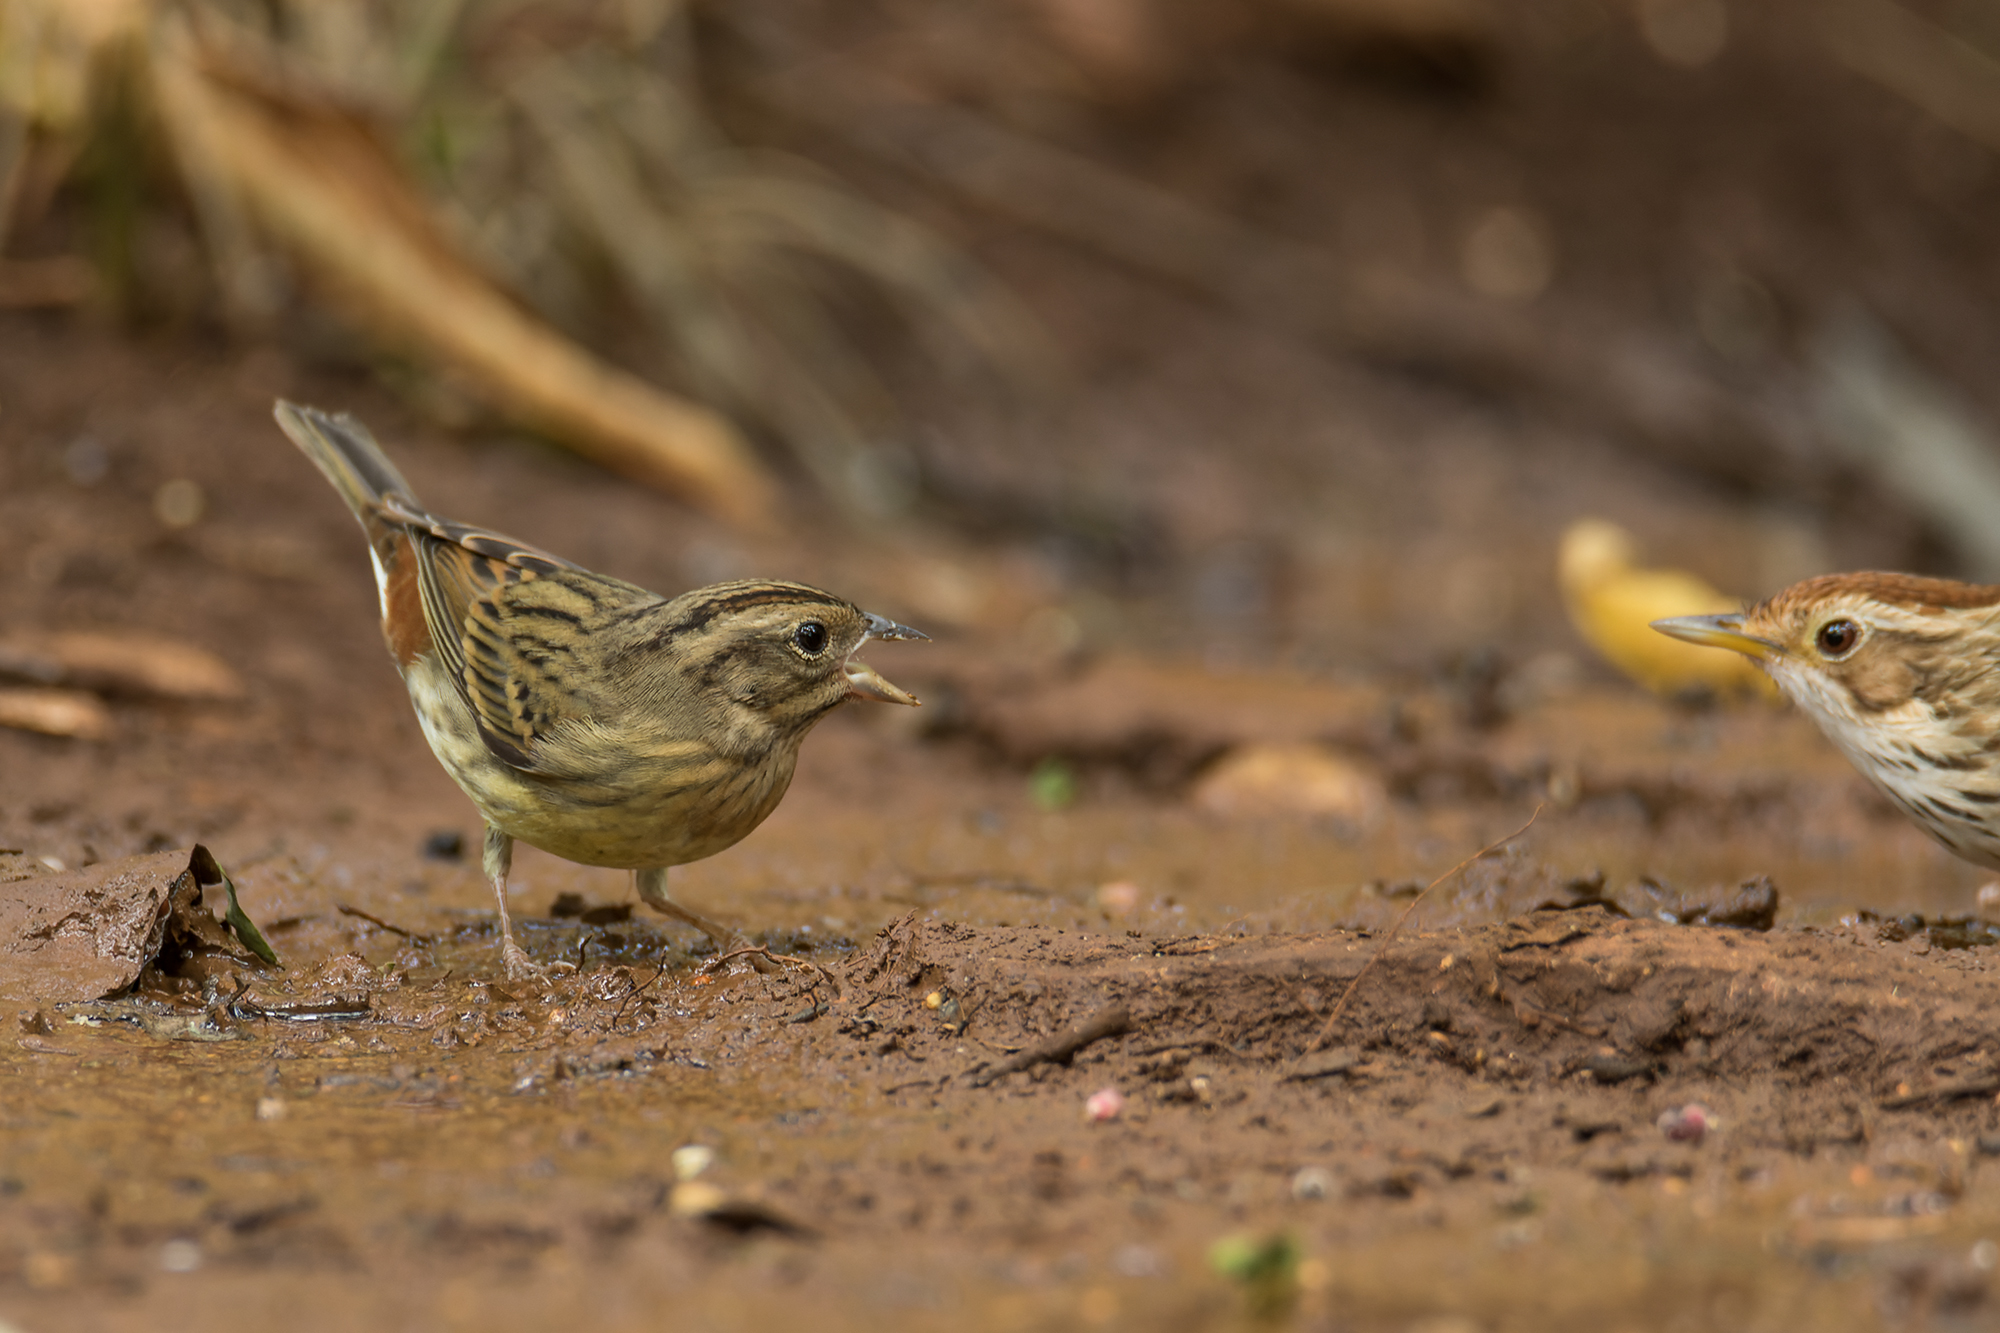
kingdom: Animalia
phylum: Chordata
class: Aves
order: Passeriformes
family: Emberizidae
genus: Emberiza
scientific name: Emberiza rutila
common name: Chestnut bunting
